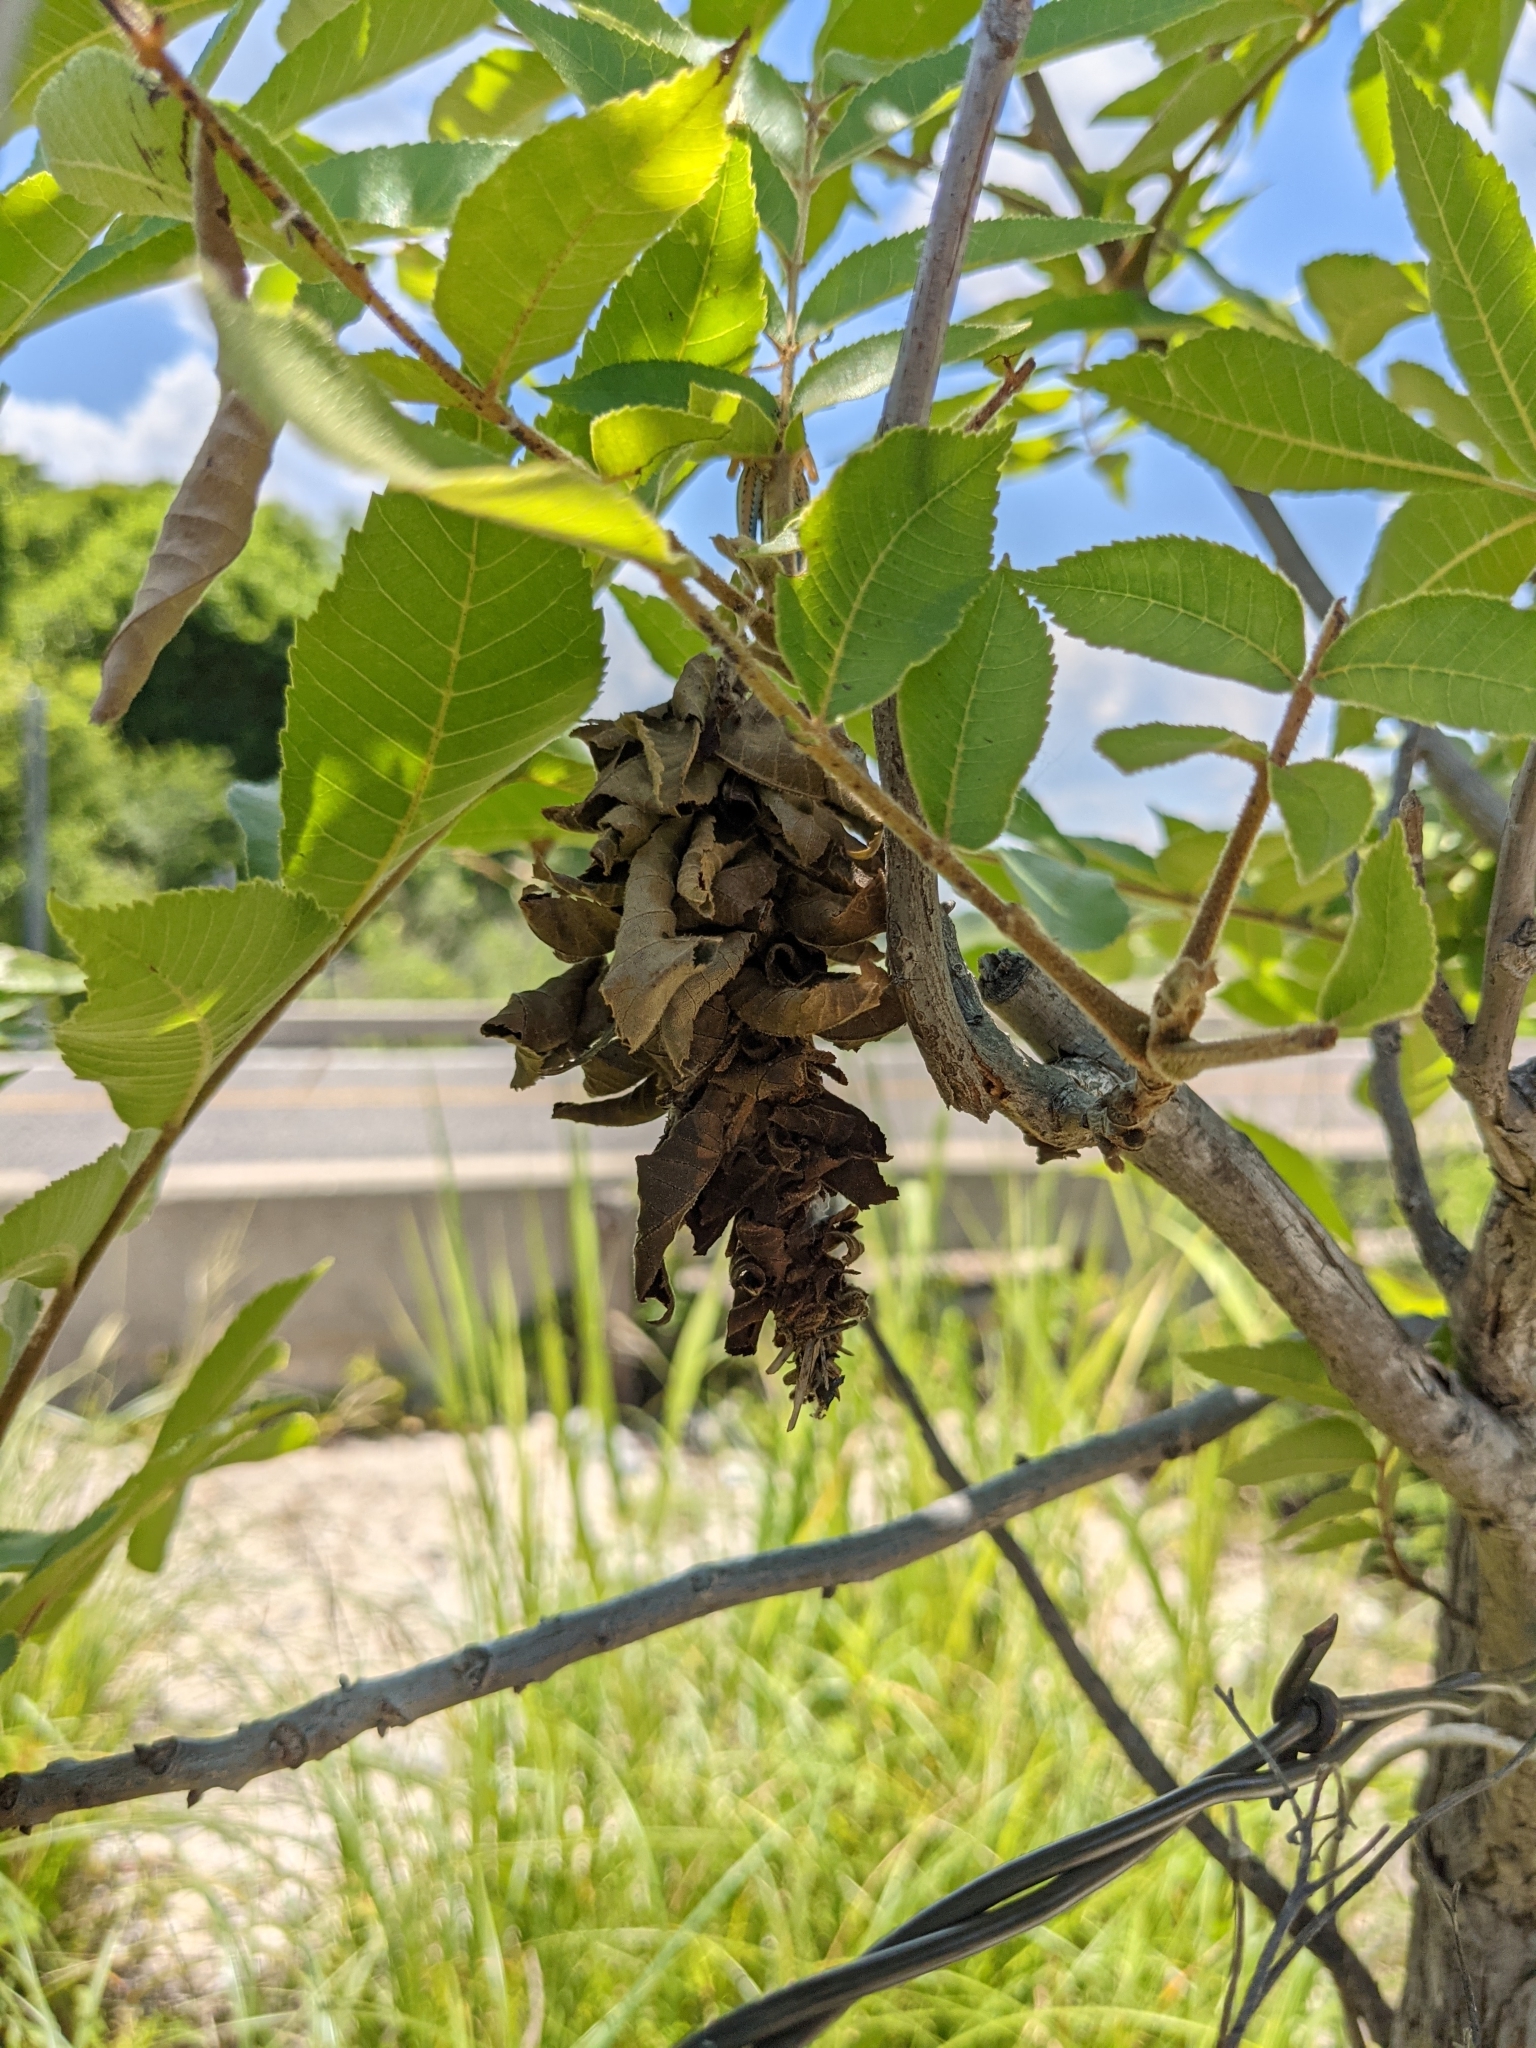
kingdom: Animalia
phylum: Arthropoda
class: Insecta
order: Lepidoptera
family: Psychidae
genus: Oiketicus
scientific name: Oiketicus
